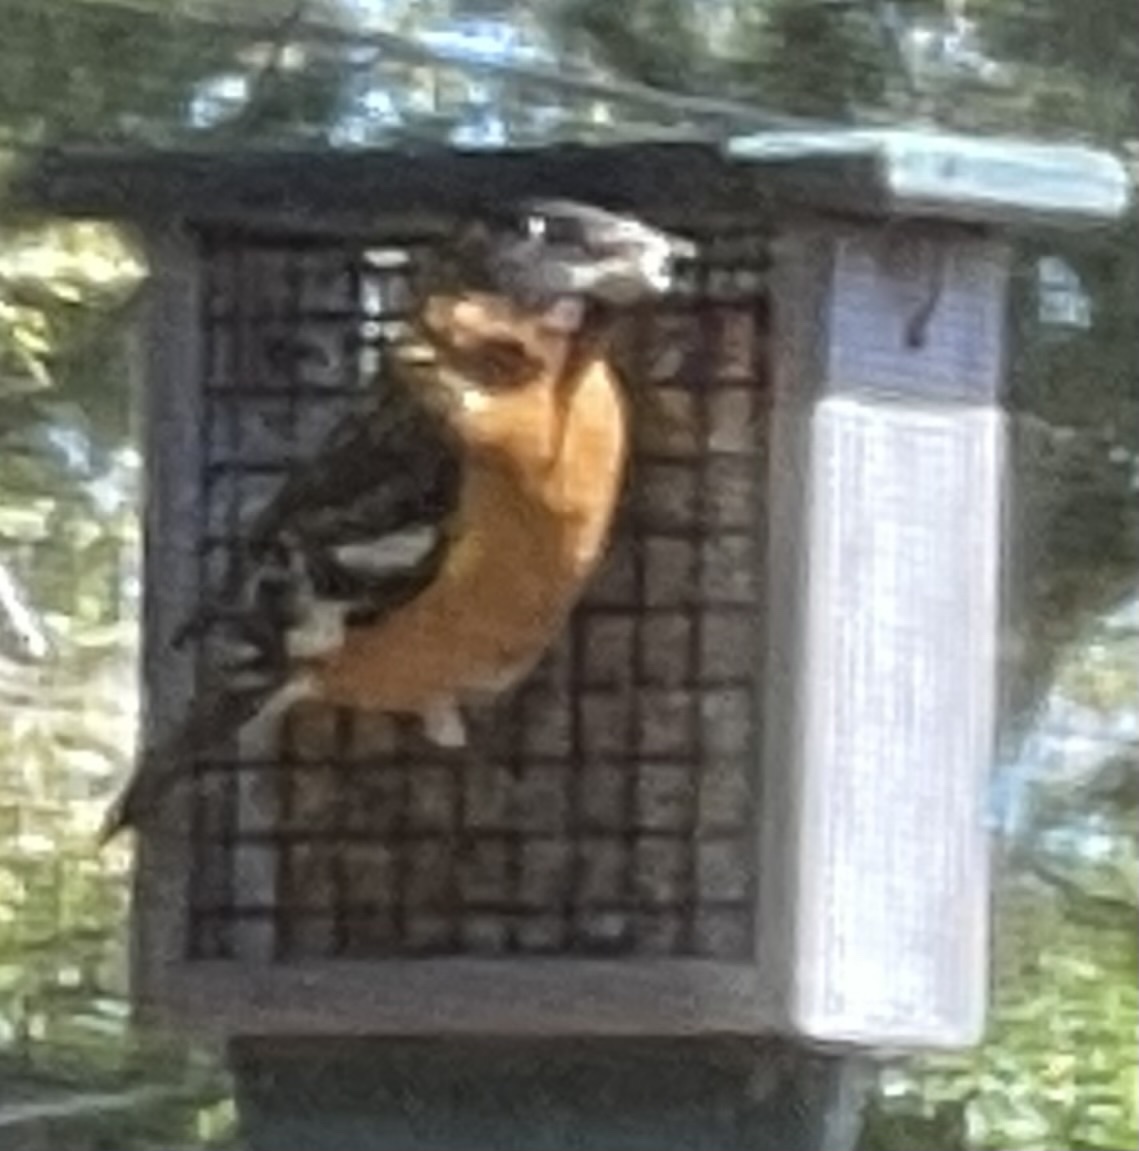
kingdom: Animalia
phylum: Chordata
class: Aves
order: Passeriformes
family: Cardinalidae
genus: Pheucticus
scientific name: Pheucticus melanocephalus
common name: Black-headed grosbeak
